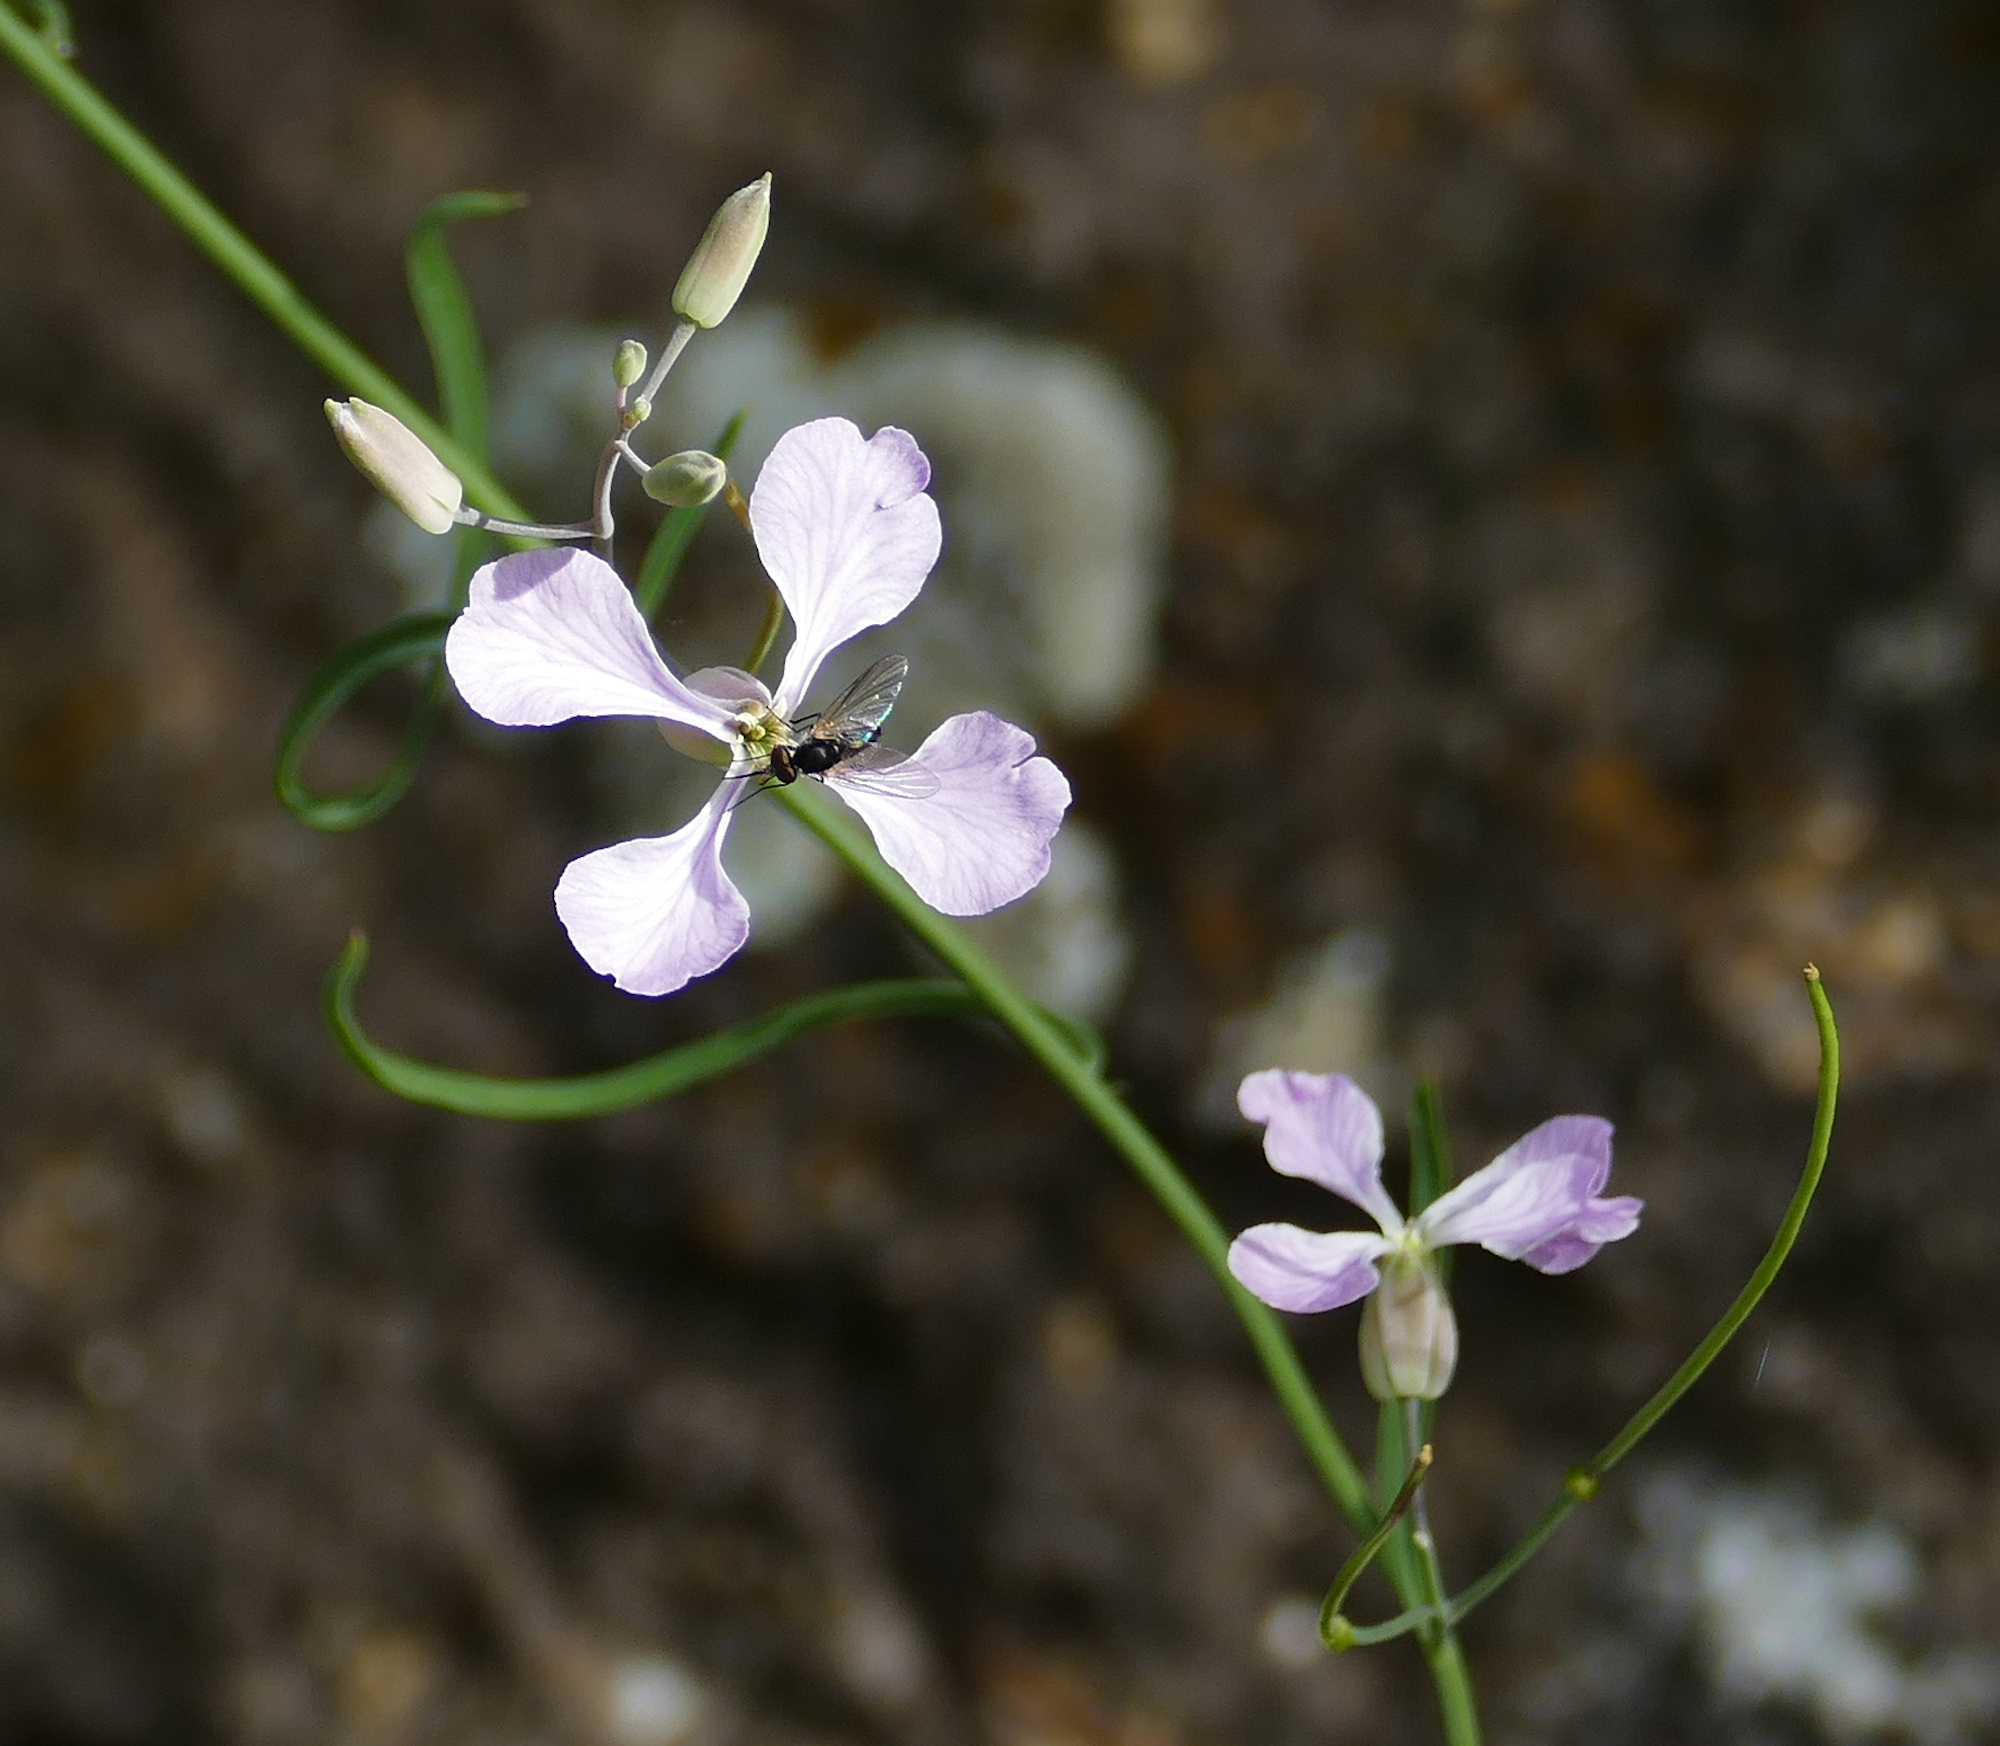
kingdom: Plantae
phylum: Tracheophyta
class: Magnoliopsida
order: Brassicales
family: Brassicaceae
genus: Hesperidanthus
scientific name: Hesperidanthus linearifolius
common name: Slim-leaf plains mustard
